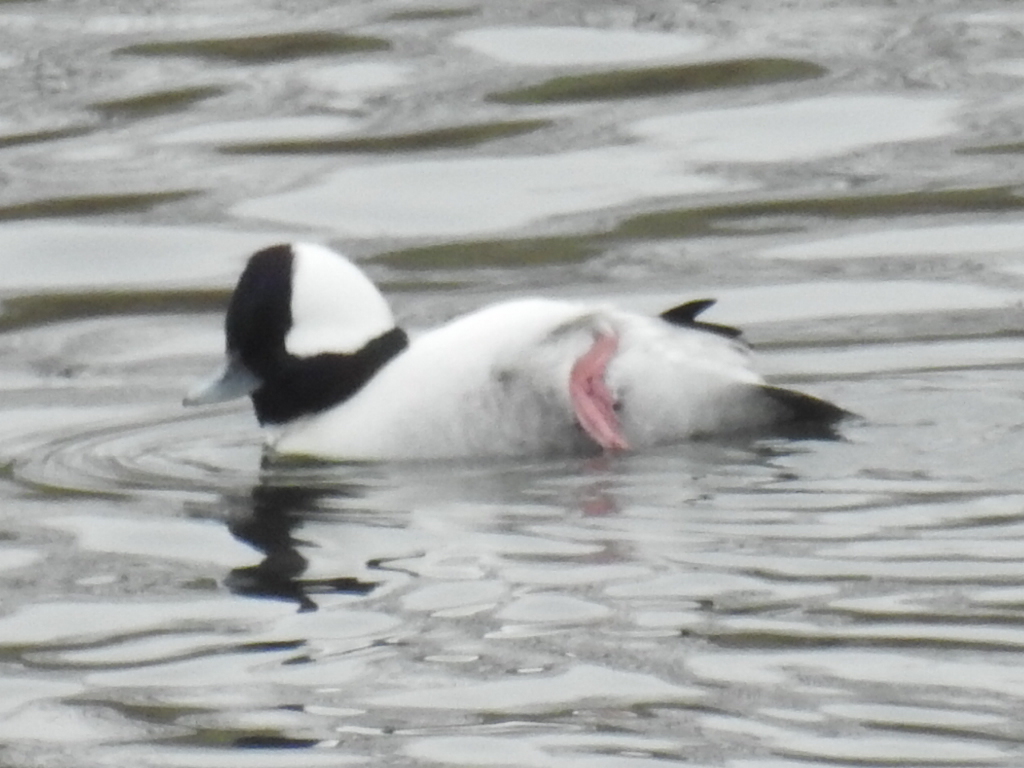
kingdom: Animalia
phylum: Chordata
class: Aves
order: Anseriformes
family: Anatidae
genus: Bucephala
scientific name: Bucephala albeola
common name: Bufflehead
